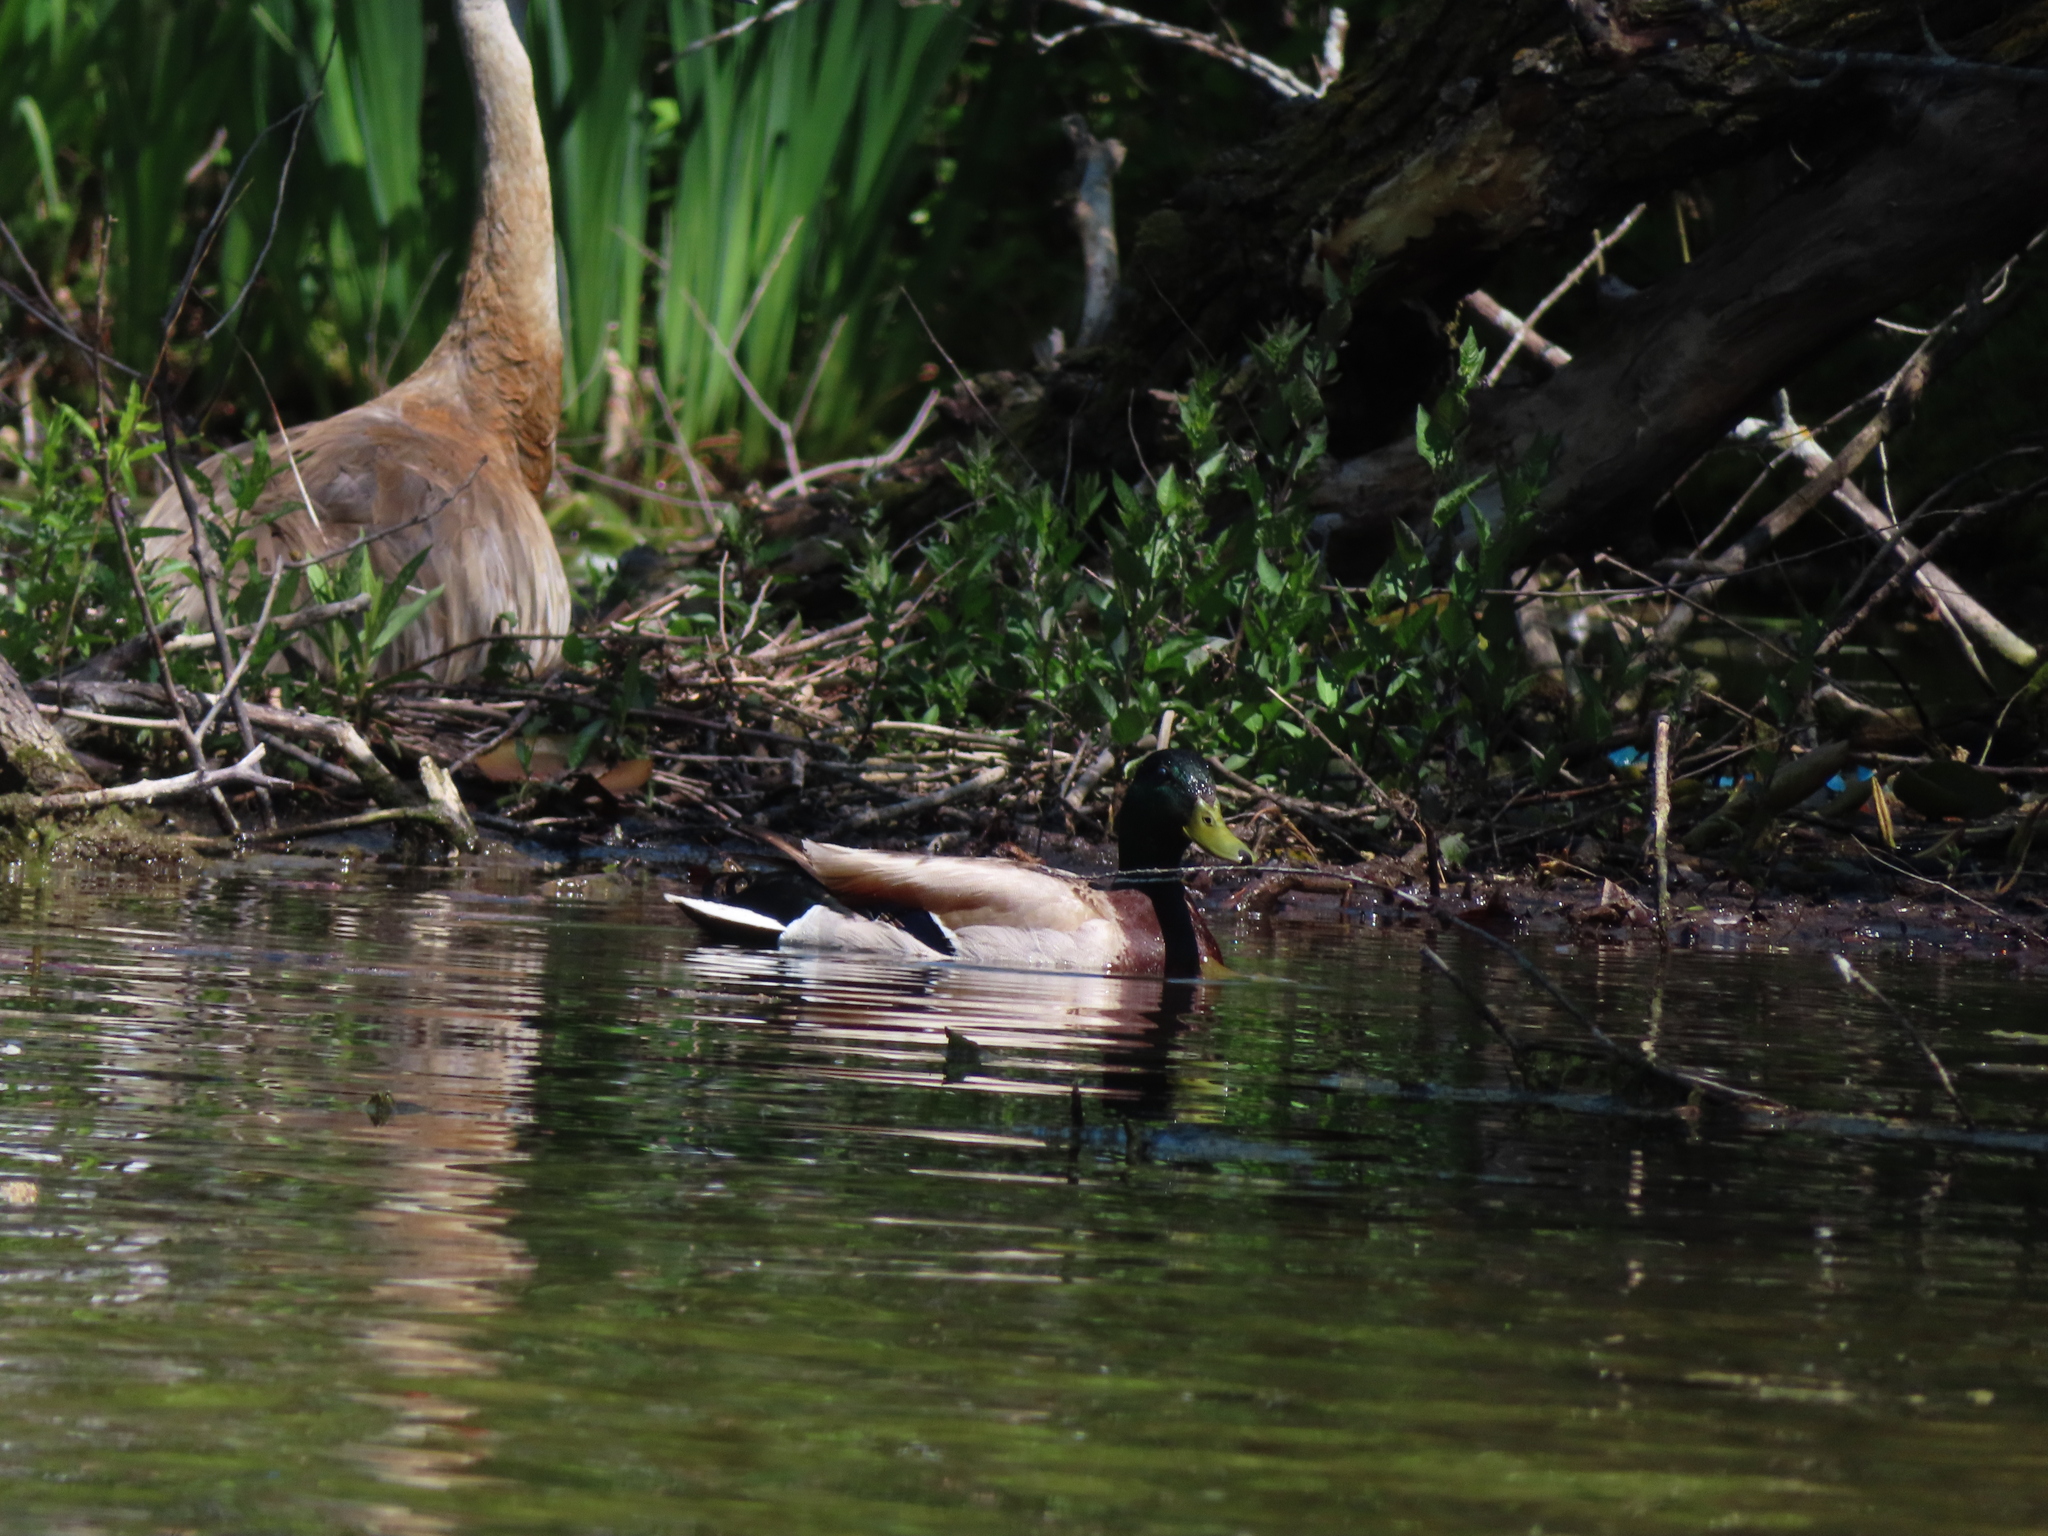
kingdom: Animalia
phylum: Chordata
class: Aves
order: Anseriformes
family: Anatidae
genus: Anas
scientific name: Anas platyrhynchos
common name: Mallard
